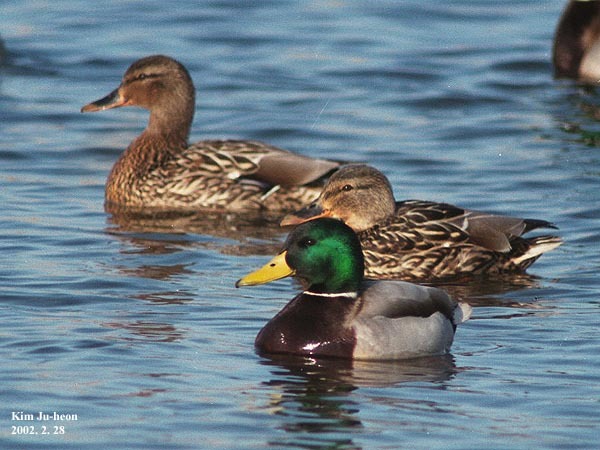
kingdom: Animalia
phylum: Chordata
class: Aves
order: Anseriformes
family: Anatidae
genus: Anas
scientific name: Anas platyrhynchos
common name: Mallard
